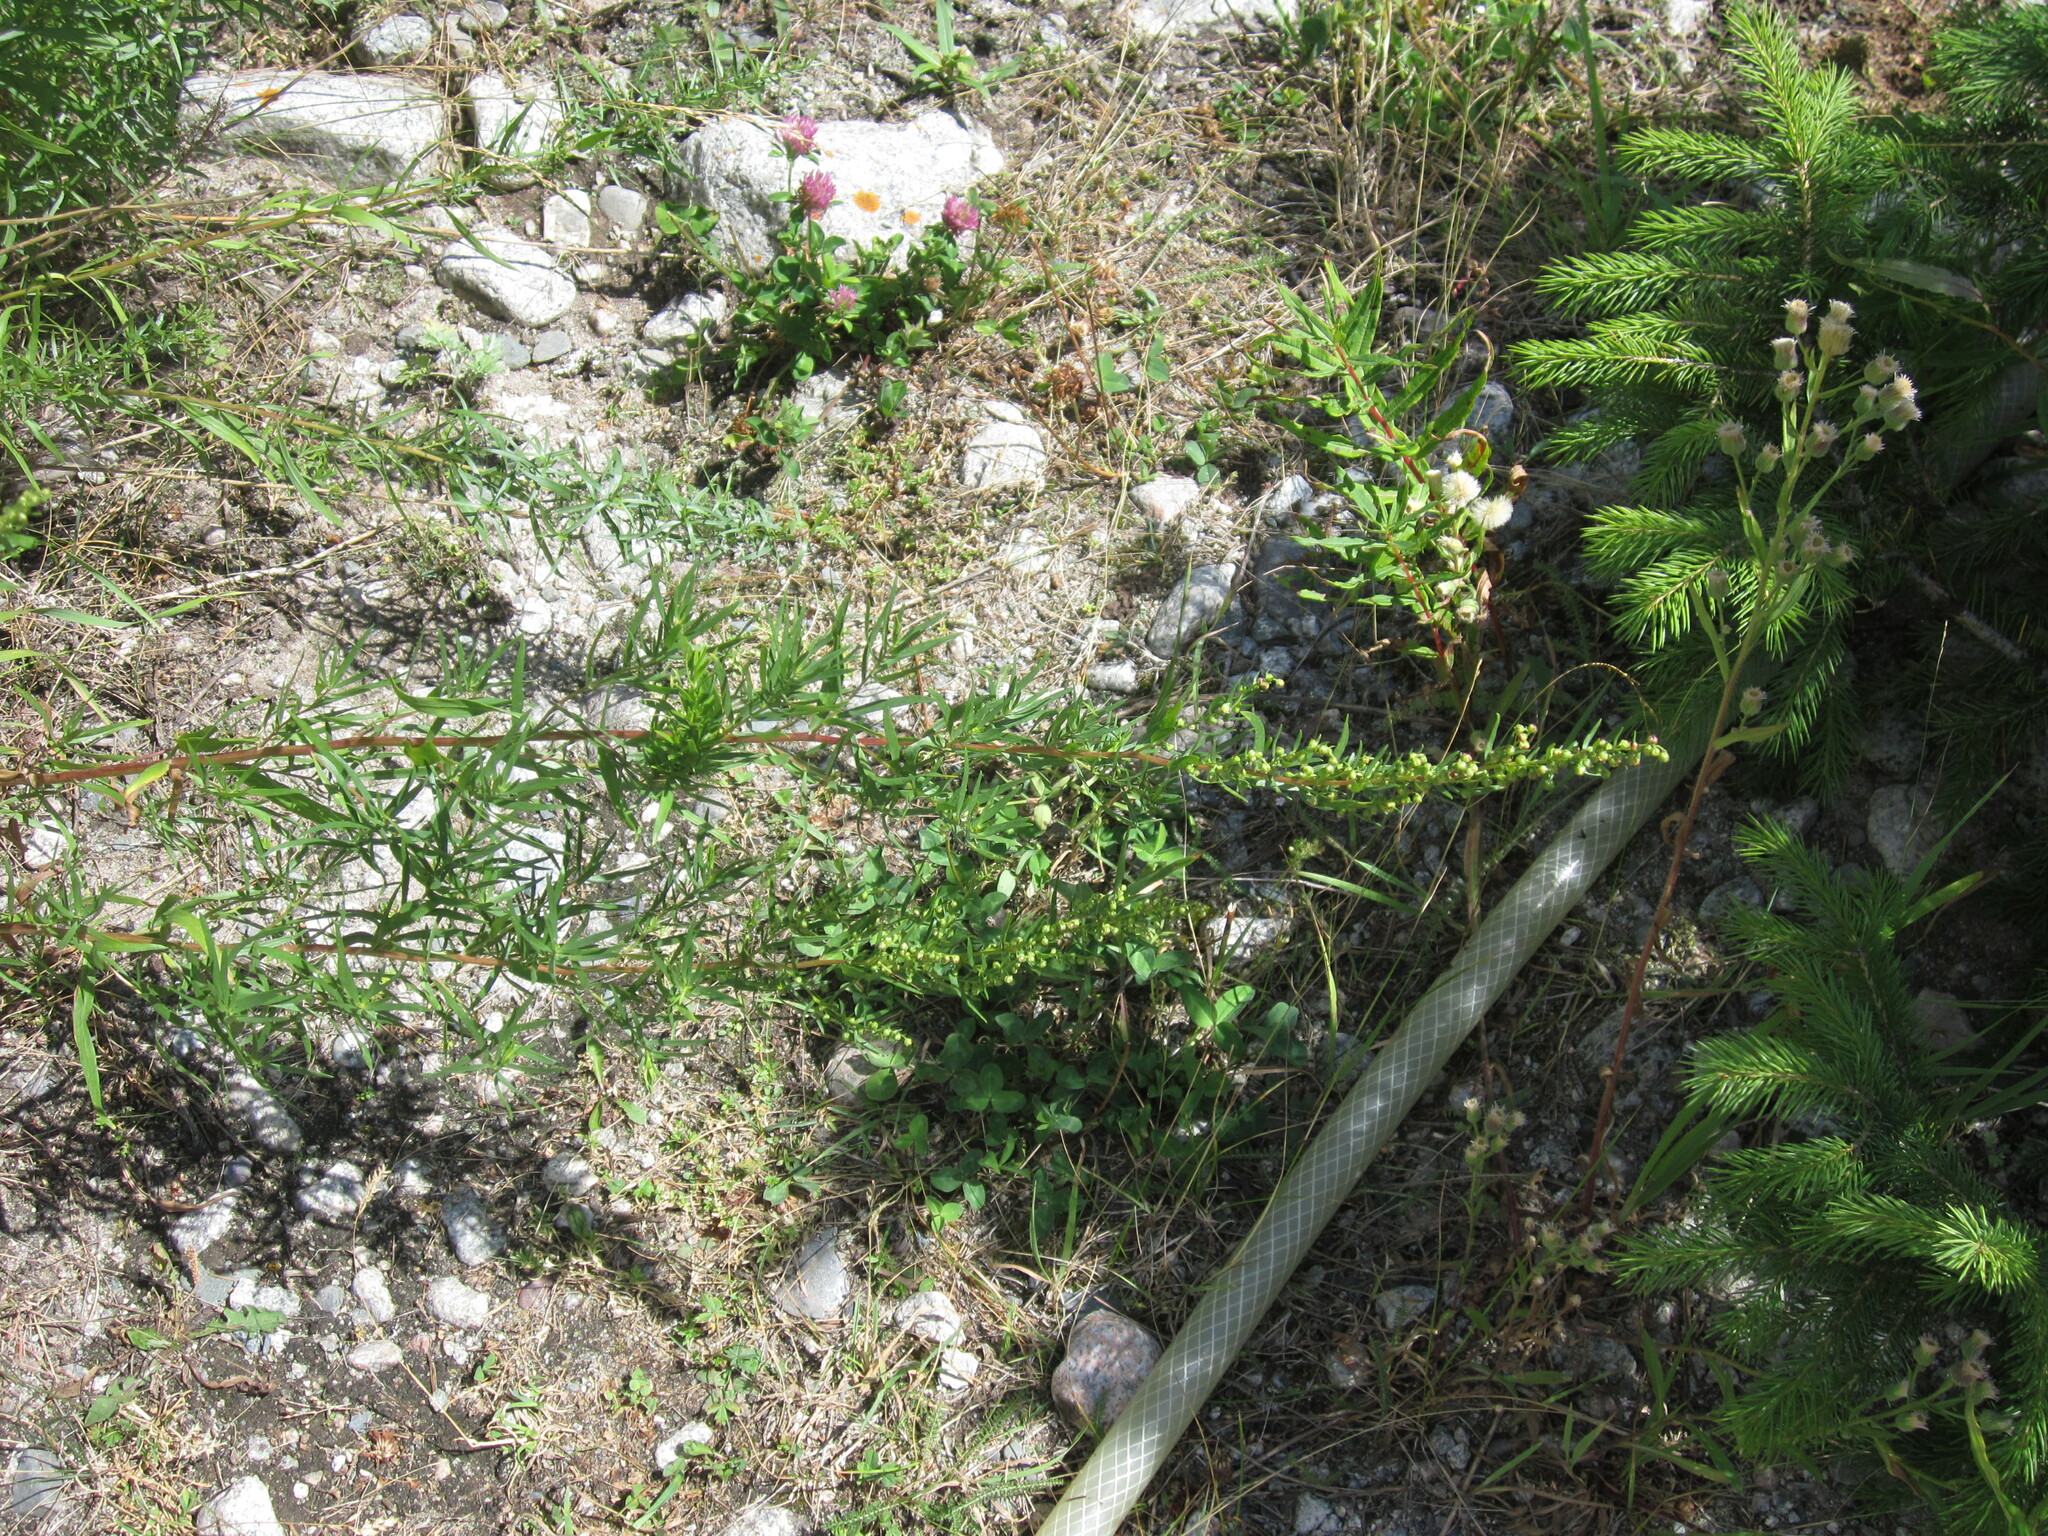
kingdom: Plantae
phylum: Tracheophyta
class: Magnoliopsida
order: Asterales
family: Asteraceae
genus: Artemisia
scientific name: Artemisia dracunculus
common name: Tarragon
